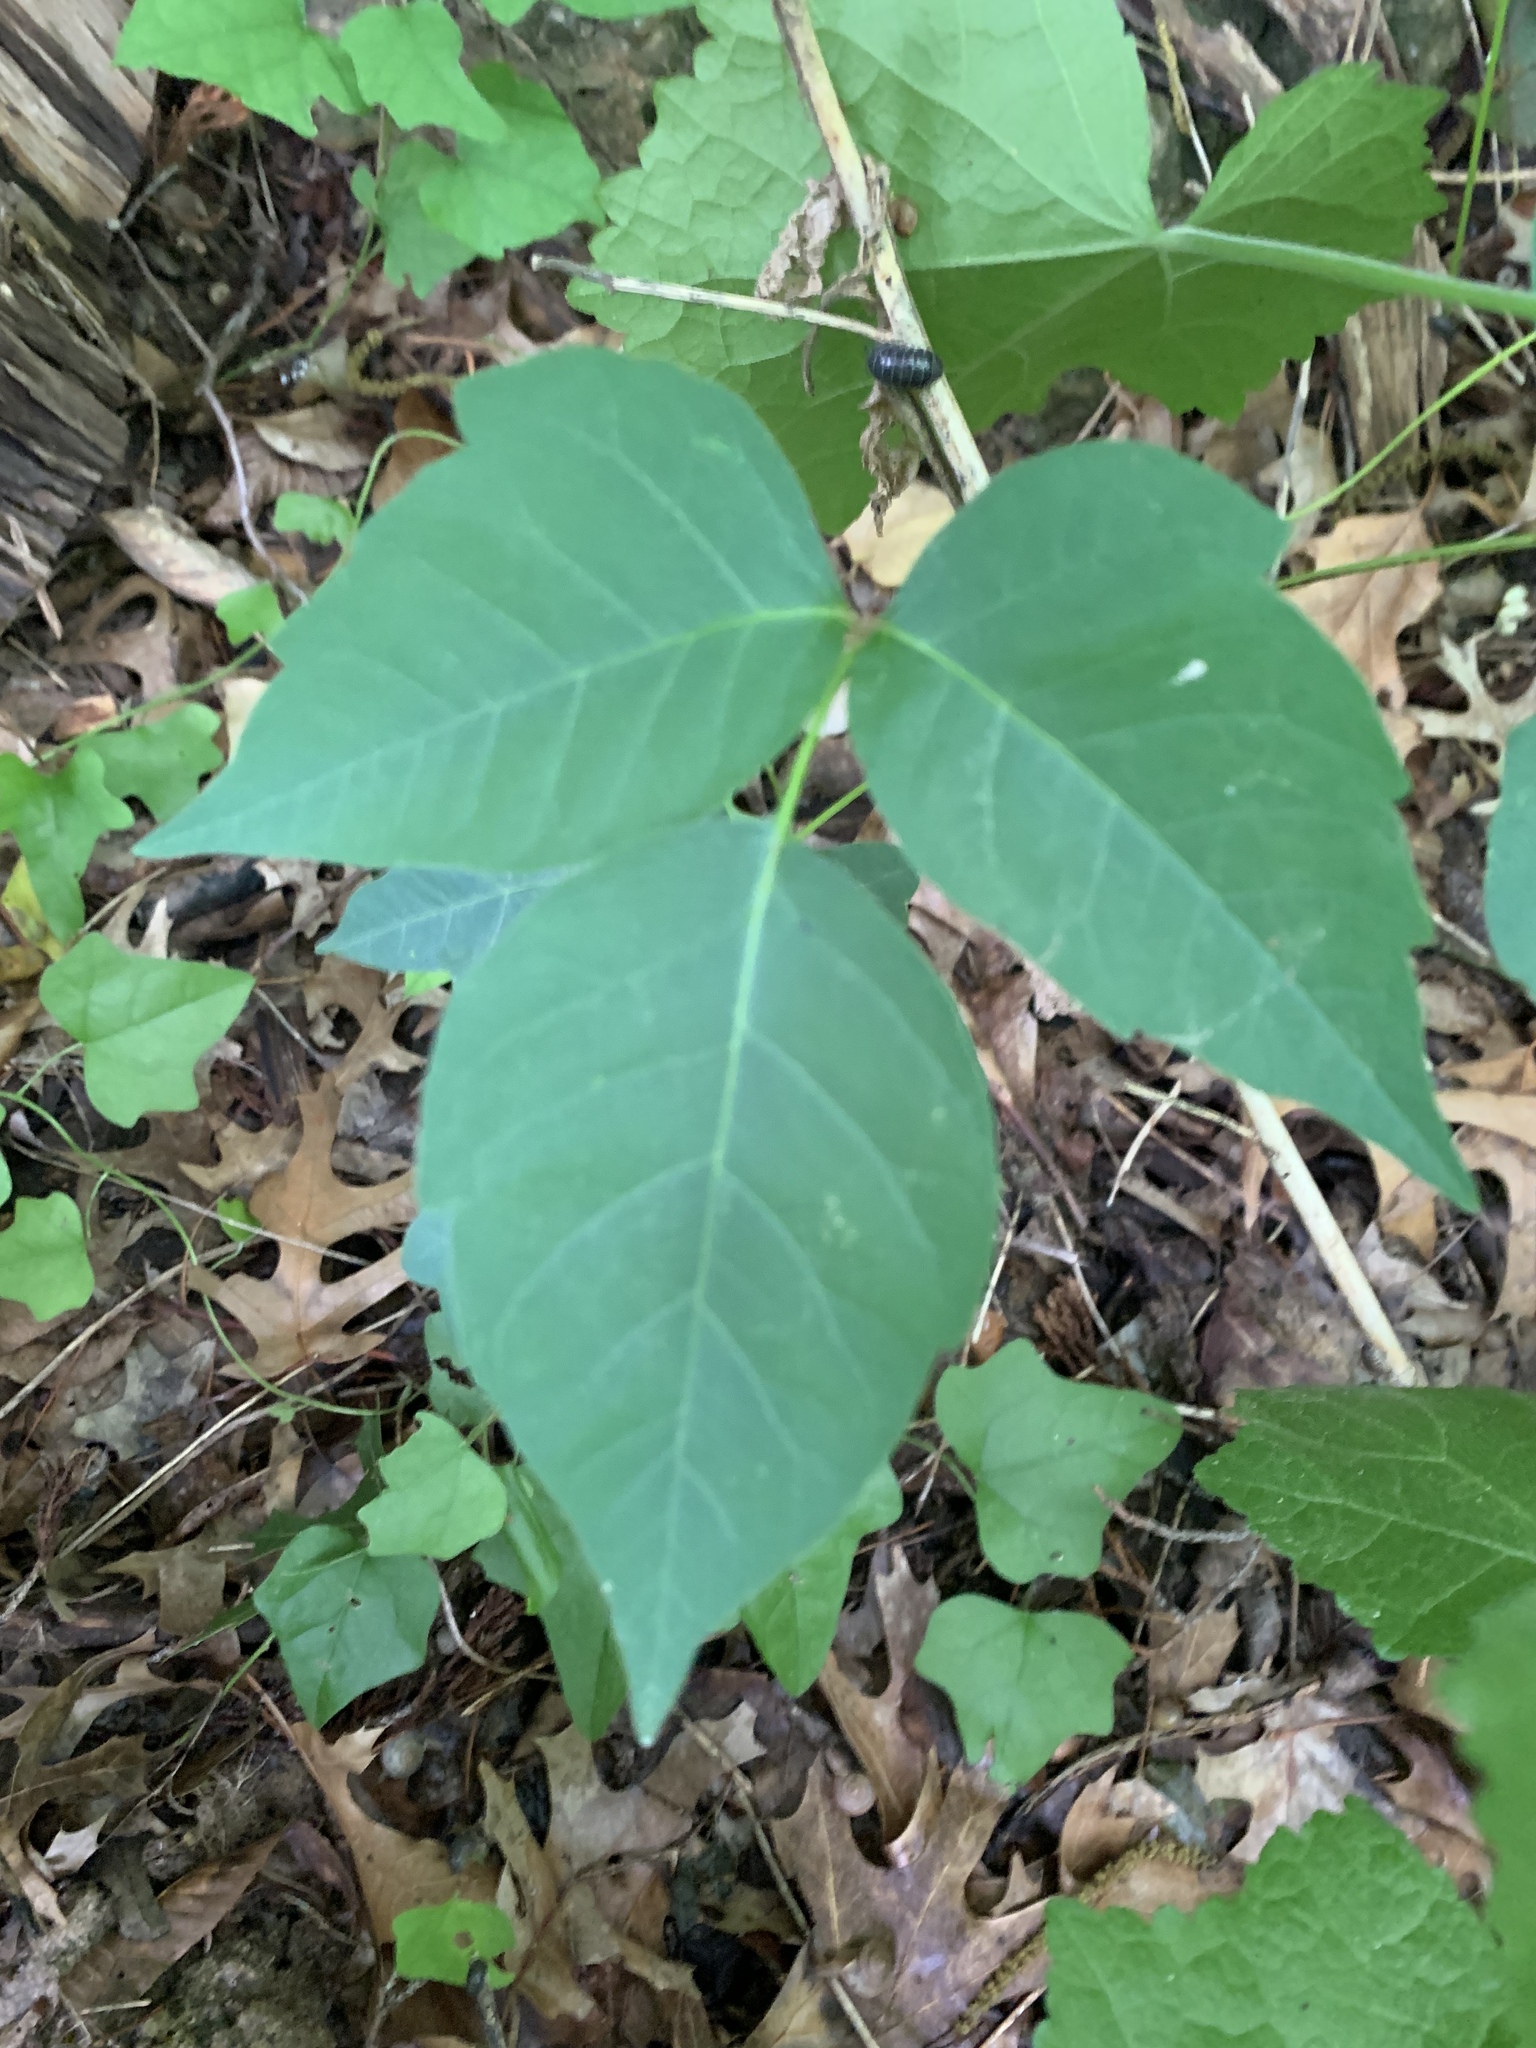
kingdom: Plantae
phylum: Tracheophyta
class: Magnoliopsida
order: Sapindales
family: Anacardiaceae
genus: Toxicodendron
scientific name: Toxicodendron radicans
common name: Poison ivy
